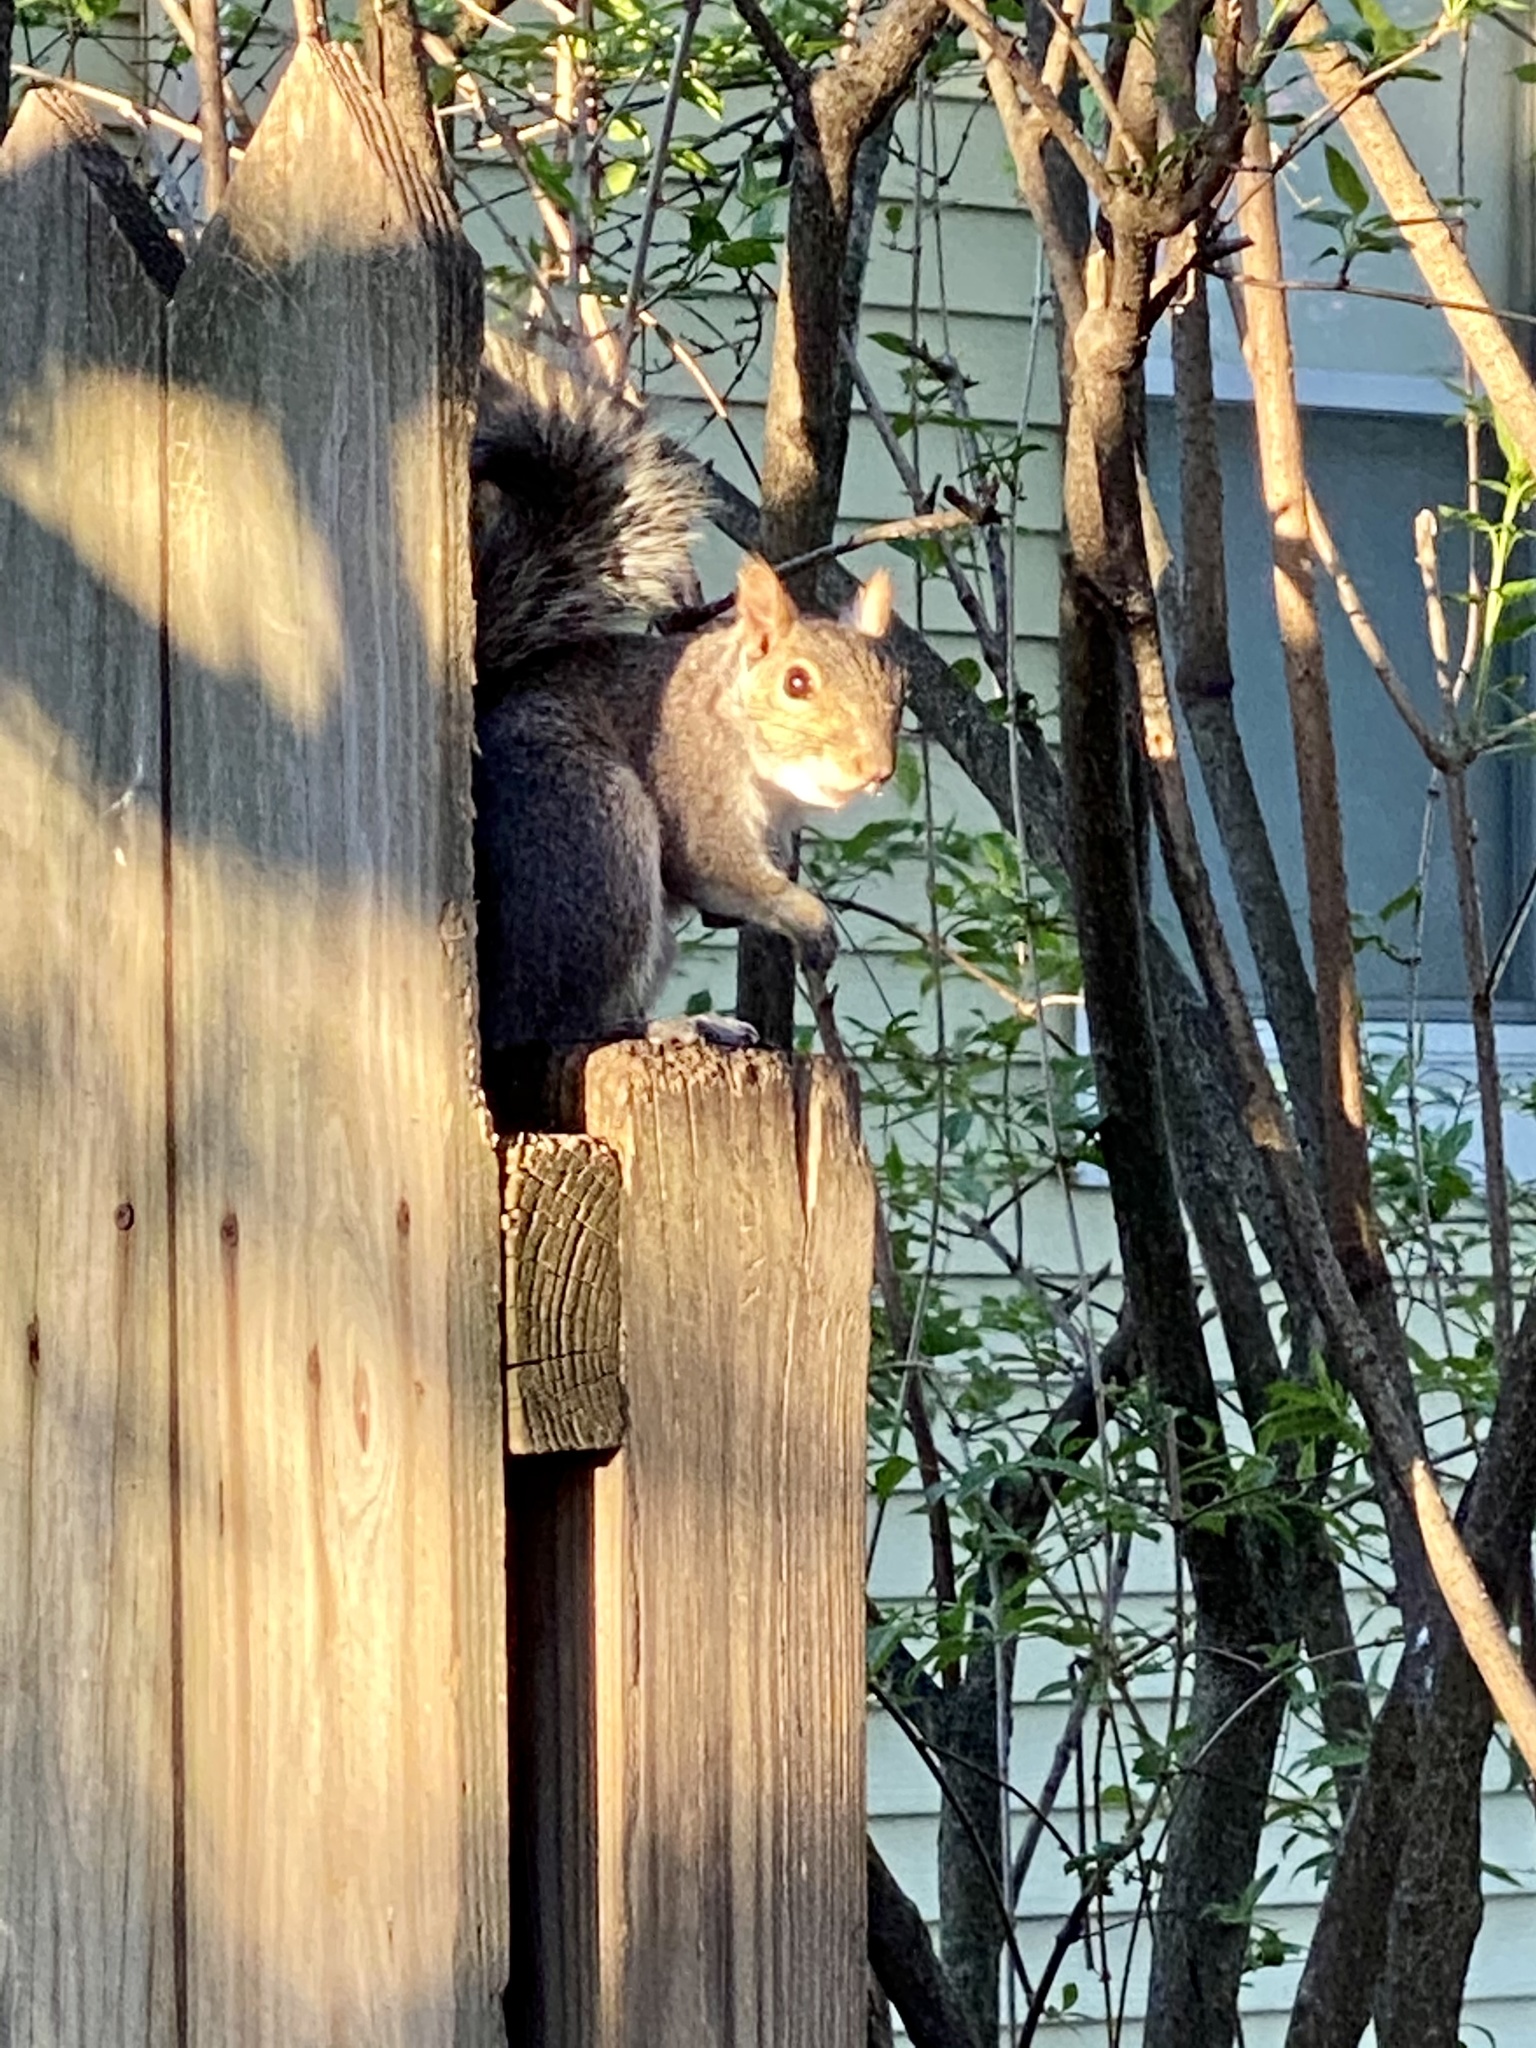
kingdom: Animalia
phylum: Chordata
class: Mammalia
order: Rodentia
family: Sciuridae
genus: Sciurus
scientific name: Sciurus carolinensis
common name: Eastern gray squirrel
